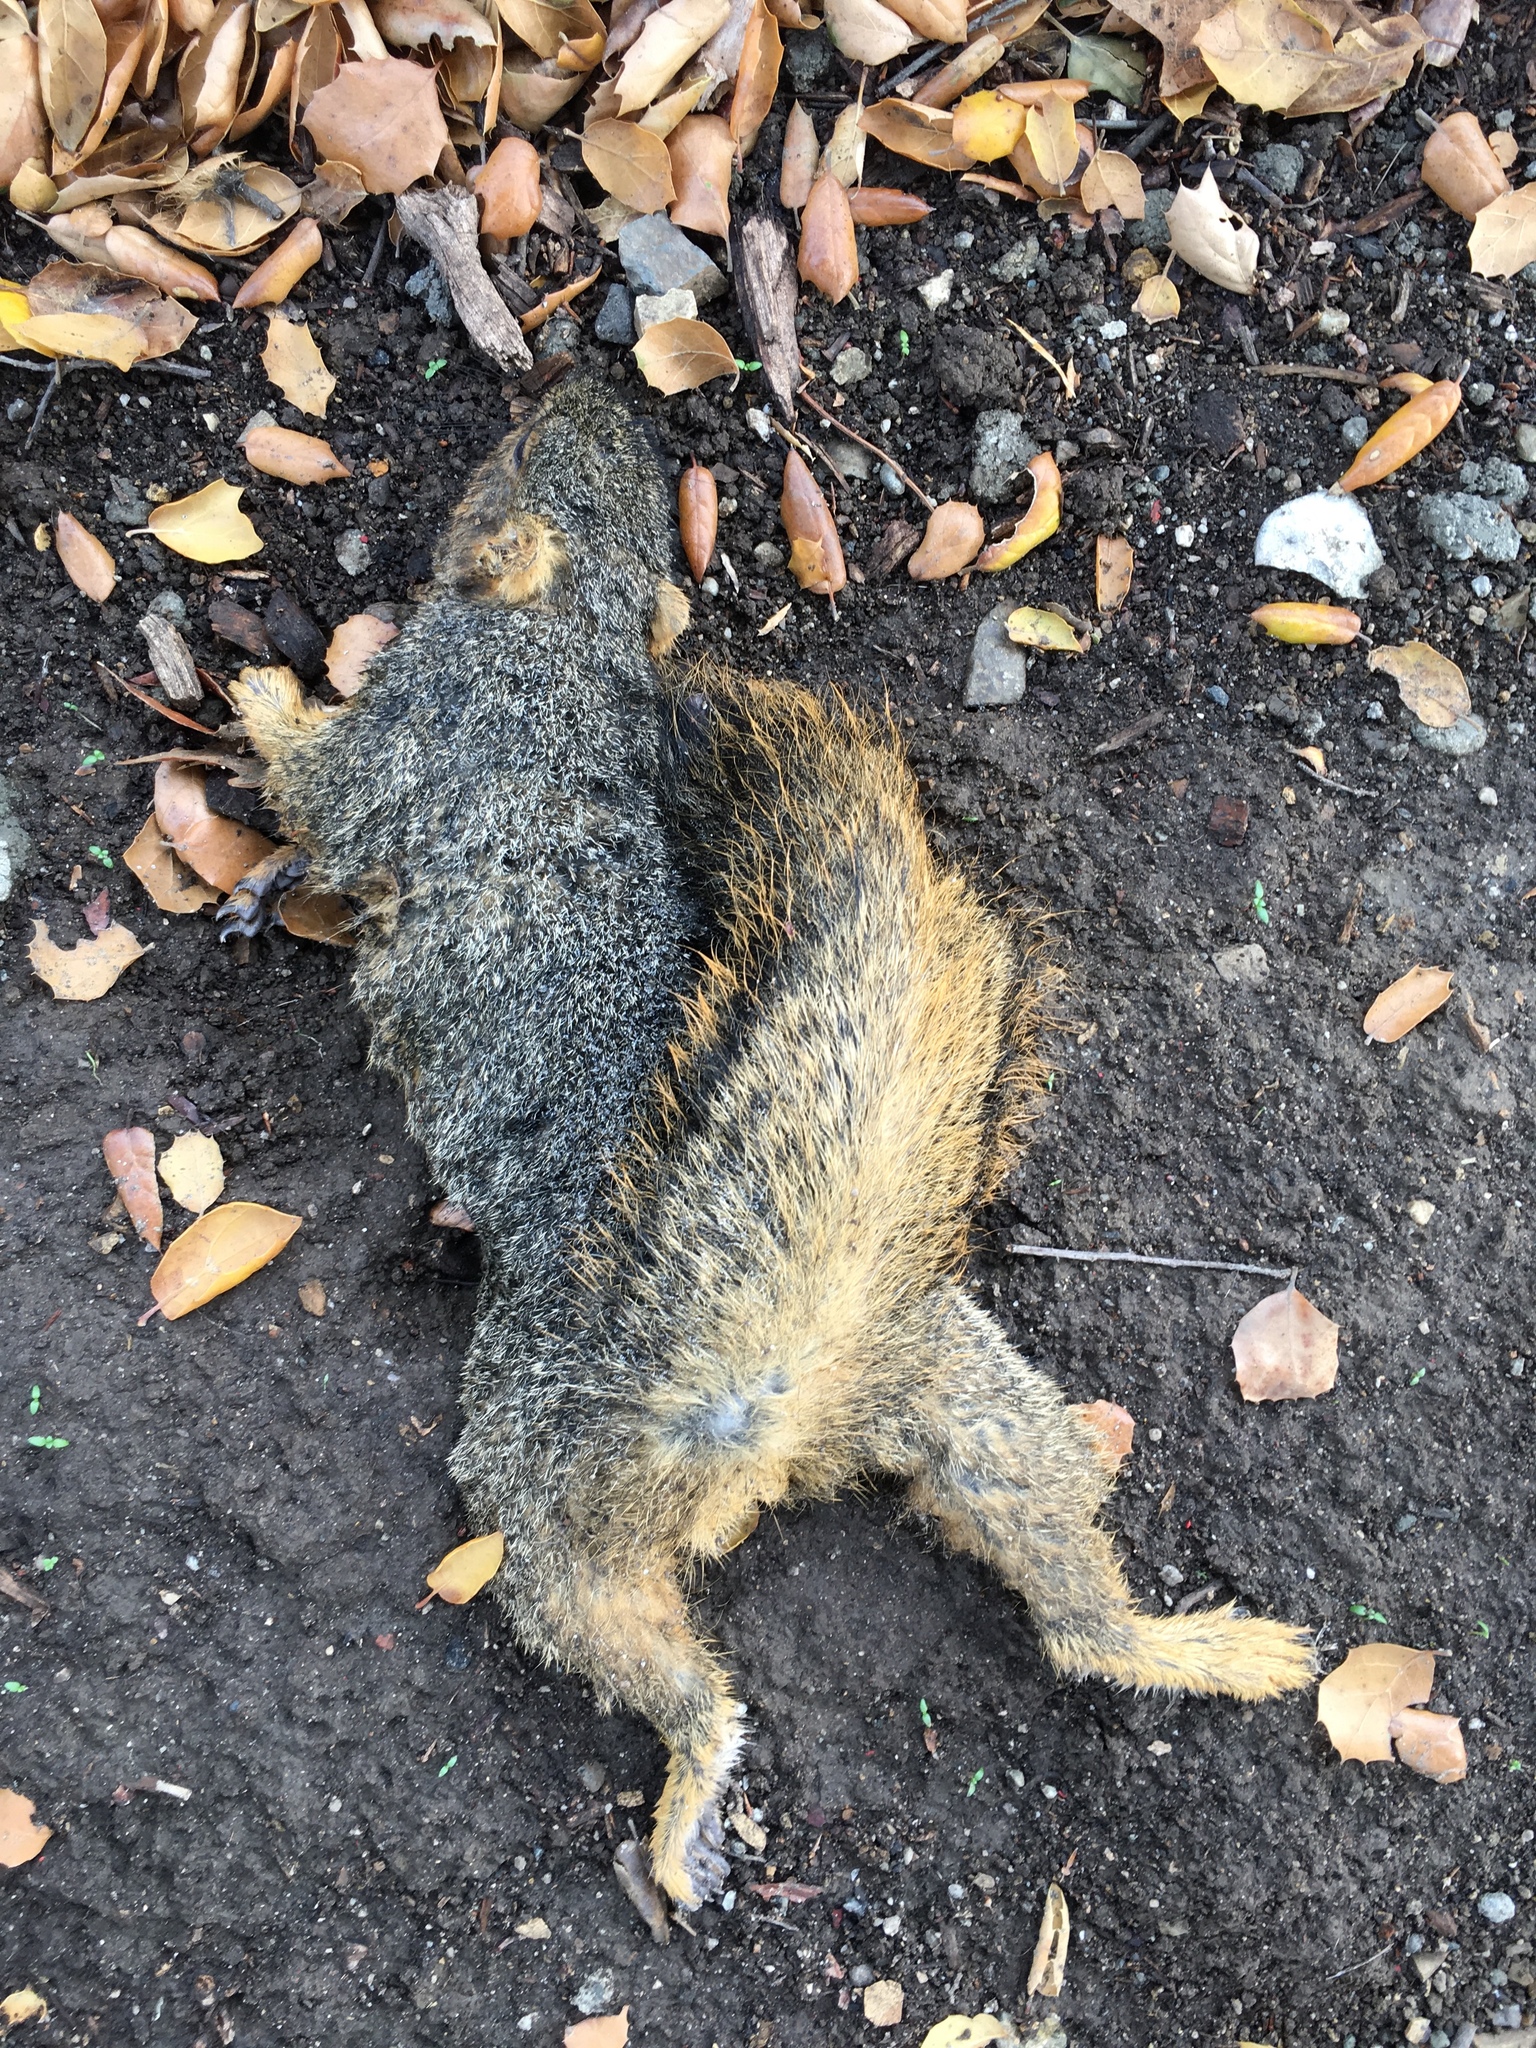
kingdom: Animalia
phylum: Chordata
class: Mammalia
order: Rodentia
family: Sciuridae
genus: Sciurus
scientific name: Sciurus niger
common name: Fox squirrel
